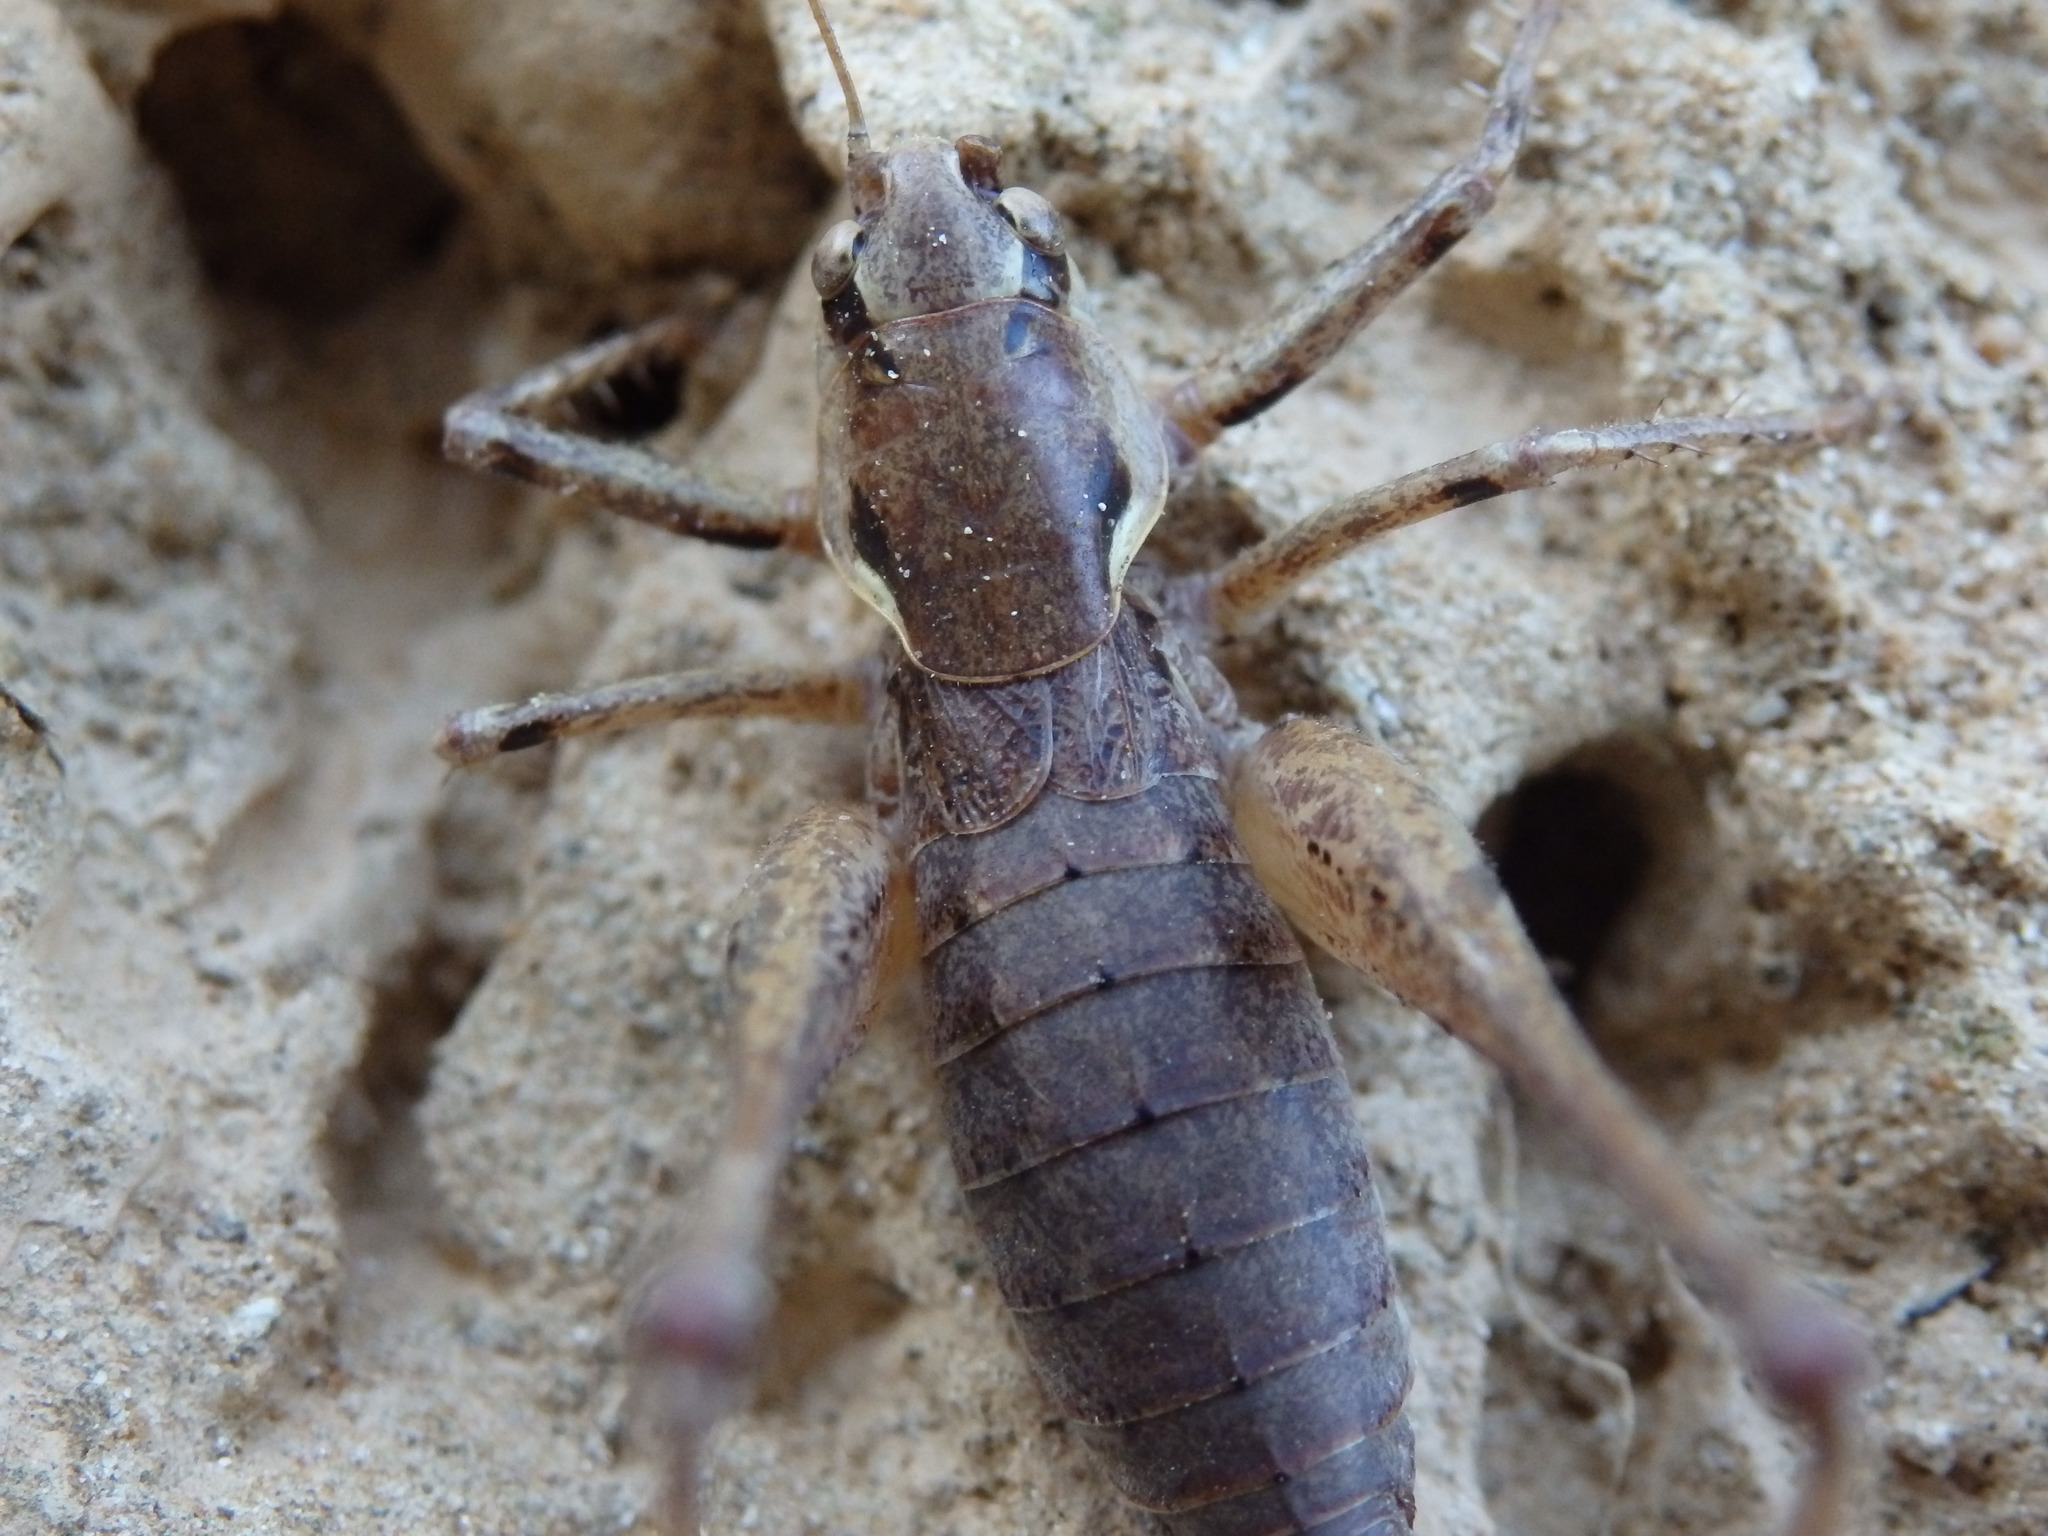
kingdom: Animalia
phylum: Arthropoda
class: Insecta
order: Orthoptera
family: Tettigoniidae
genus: Antaxius
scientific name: Antaxius spinibrachius
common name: Spiny-legged bush-cricket
